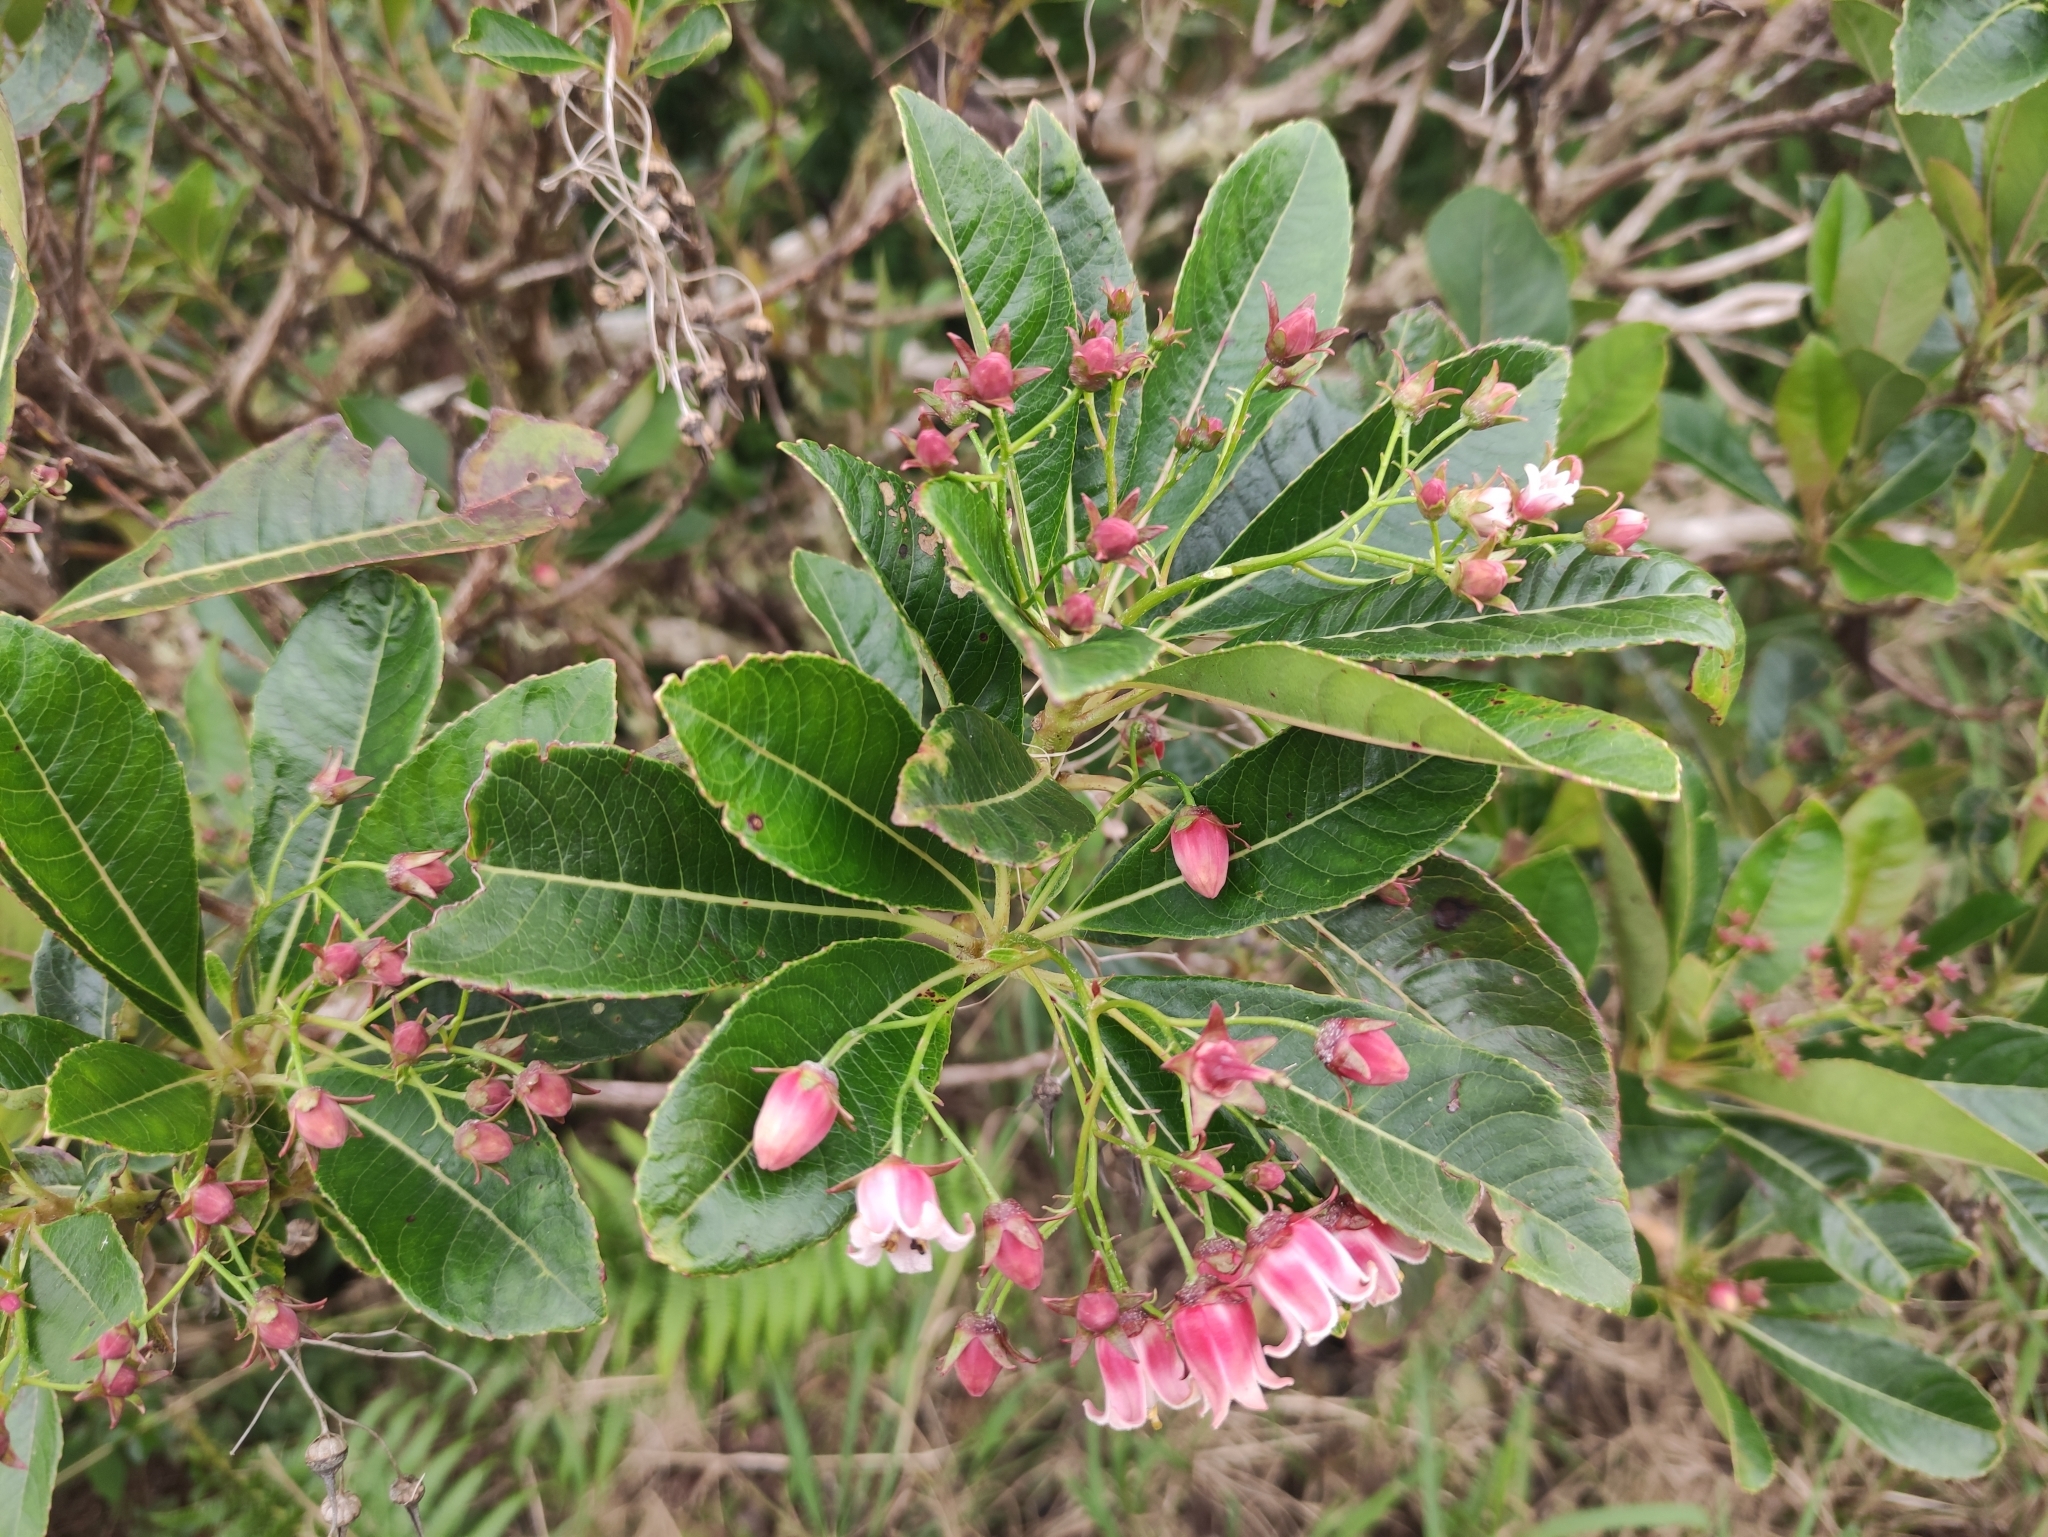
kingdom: Plantae
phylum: Tracheophyta
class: Magnoliopsida
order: Escalloniales
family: Escalloniaceae
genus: Forgesia
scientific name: Forgesia racemosa
